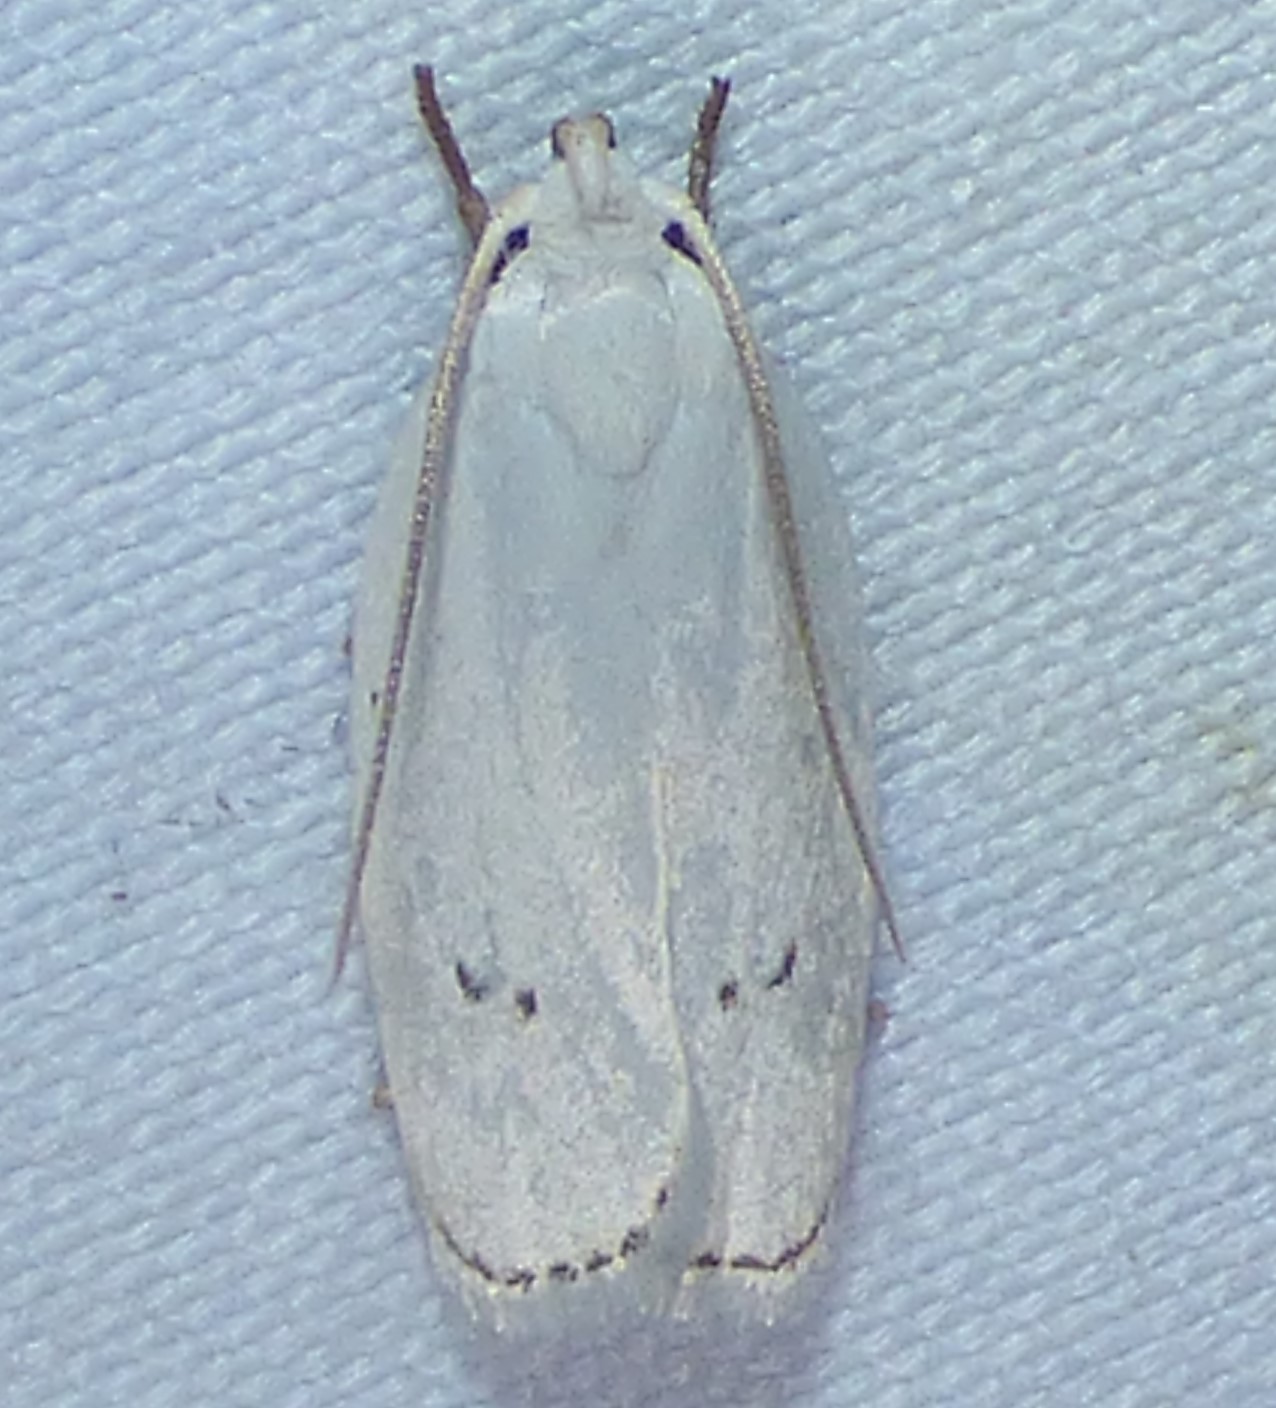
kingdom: Animalia
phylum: Arthropoda
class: Insecta
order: Lepidoptera
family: Depressariidae
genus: Antaeotricha
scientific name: Antaeotricha albulella
